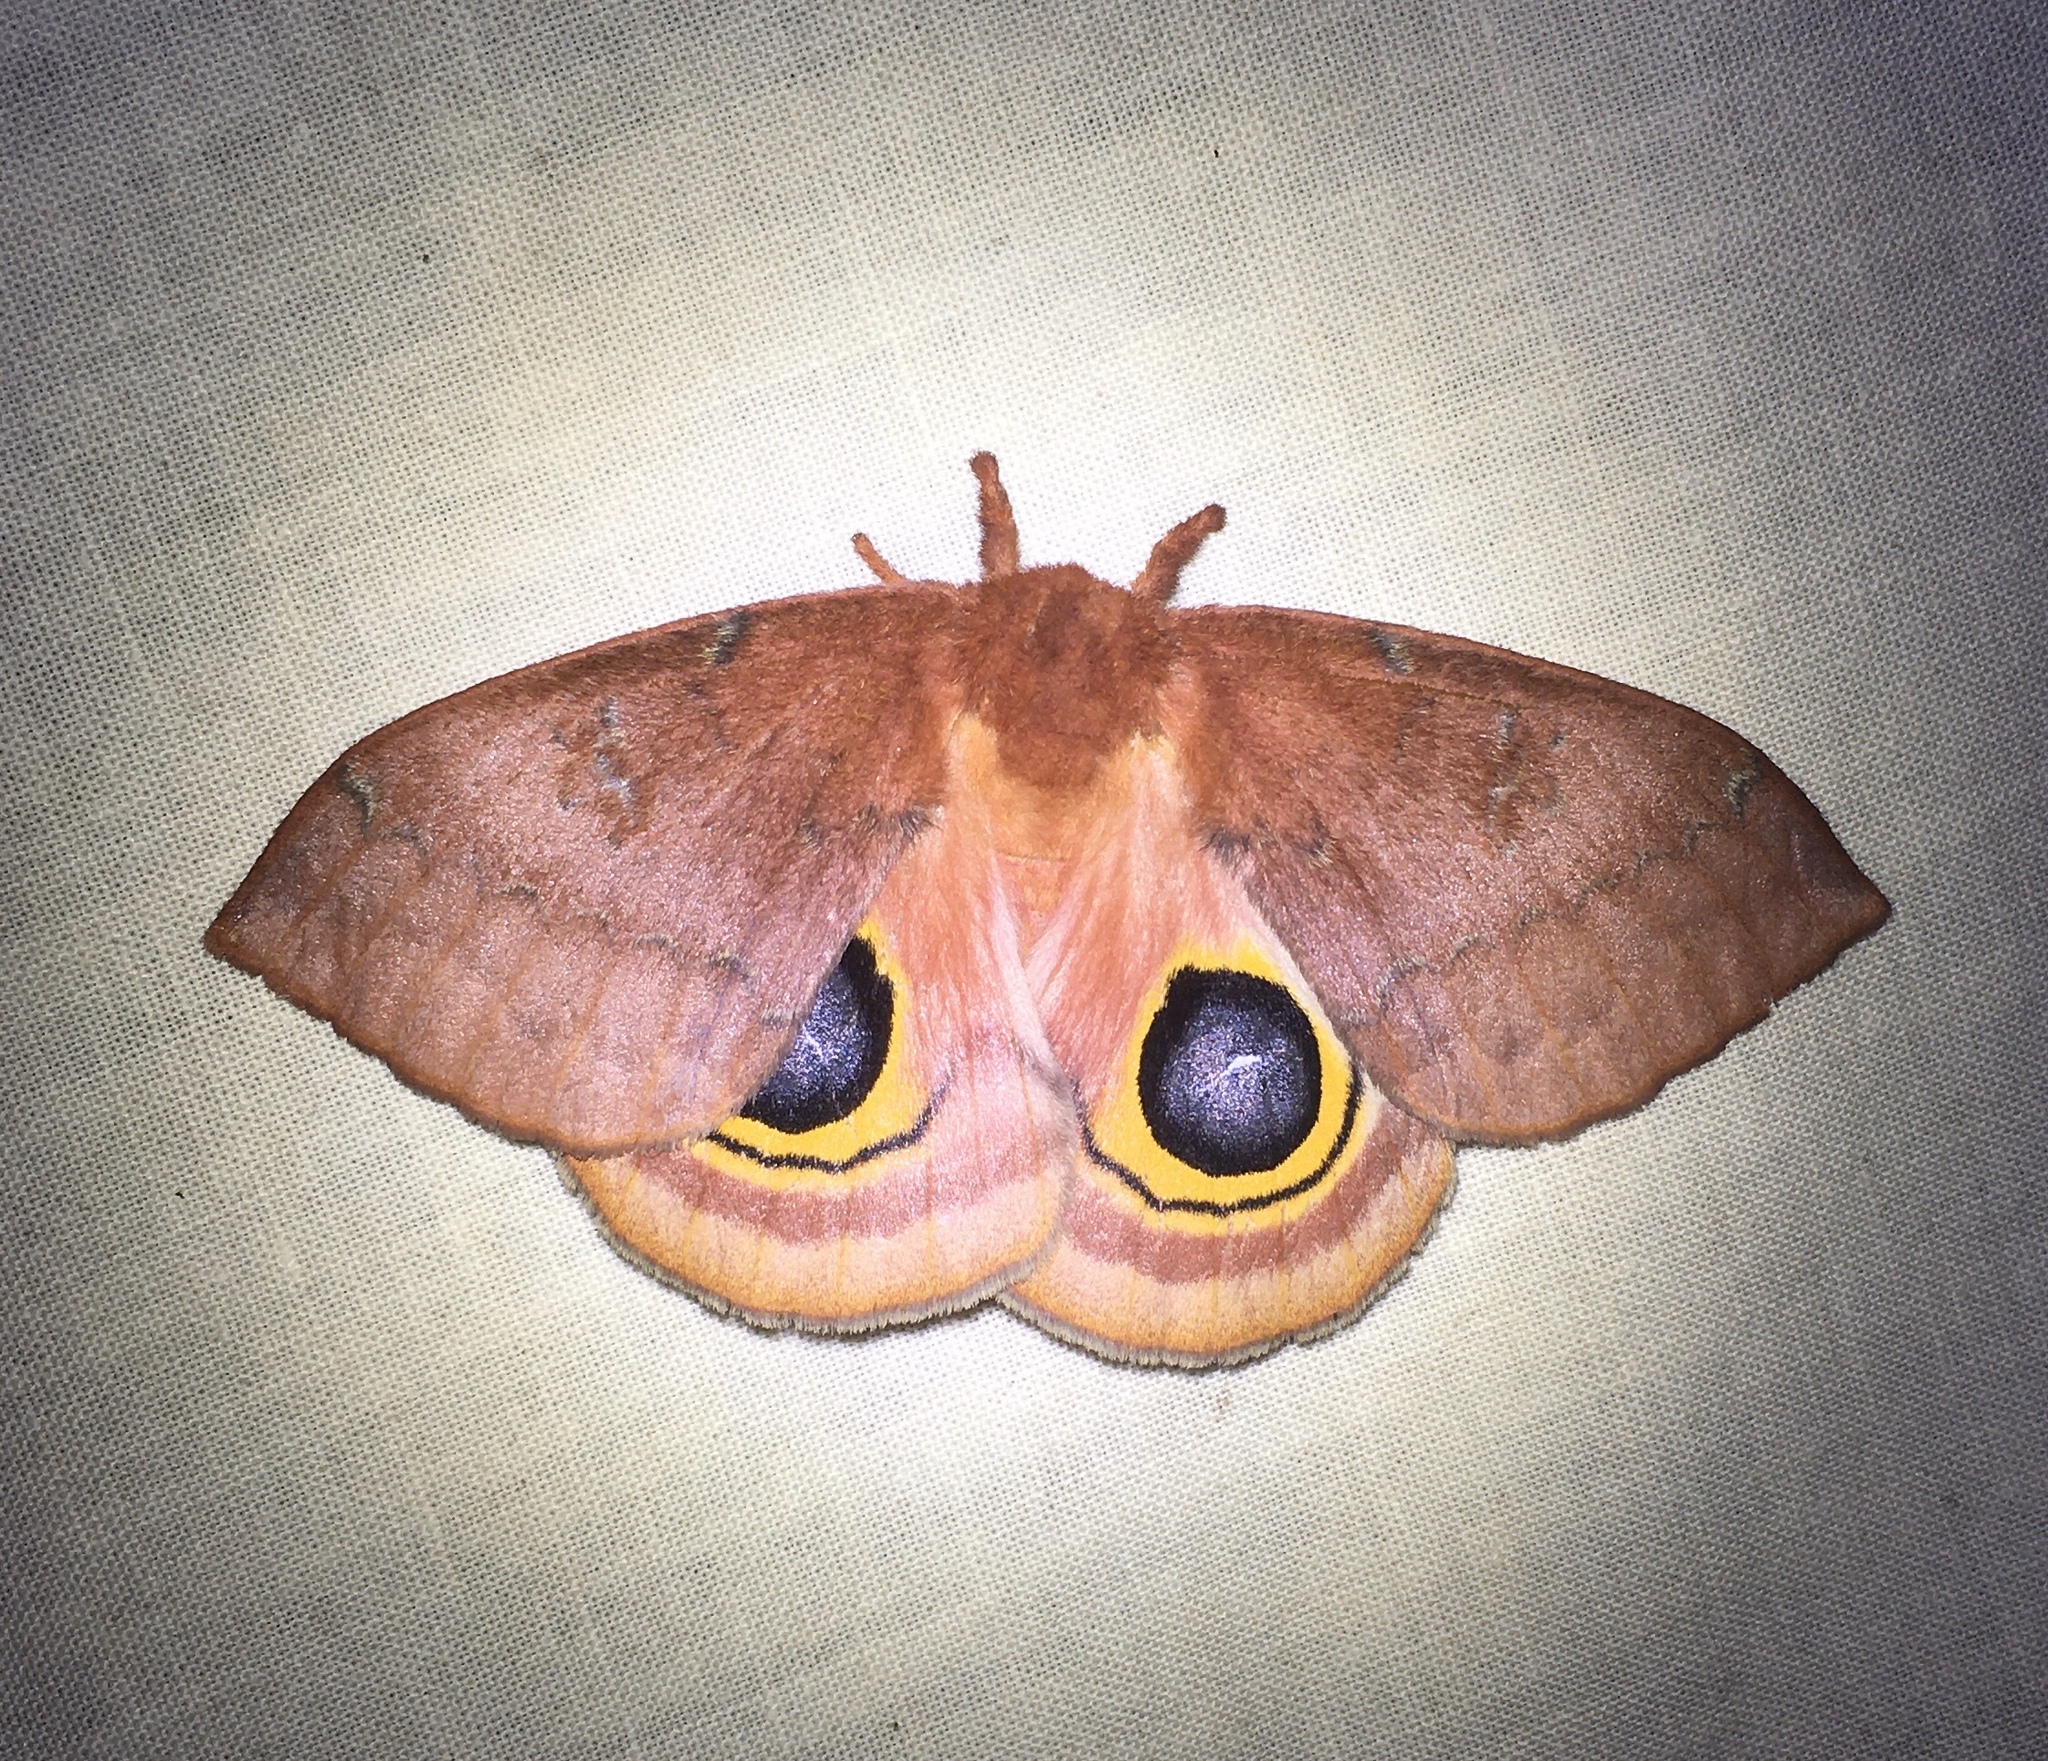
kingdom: Animalia
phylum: Arthropoda
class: Insecta
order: Lepidoptera
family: Saturniidae
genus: Automeris
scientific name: Automeris io
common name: Io moth
